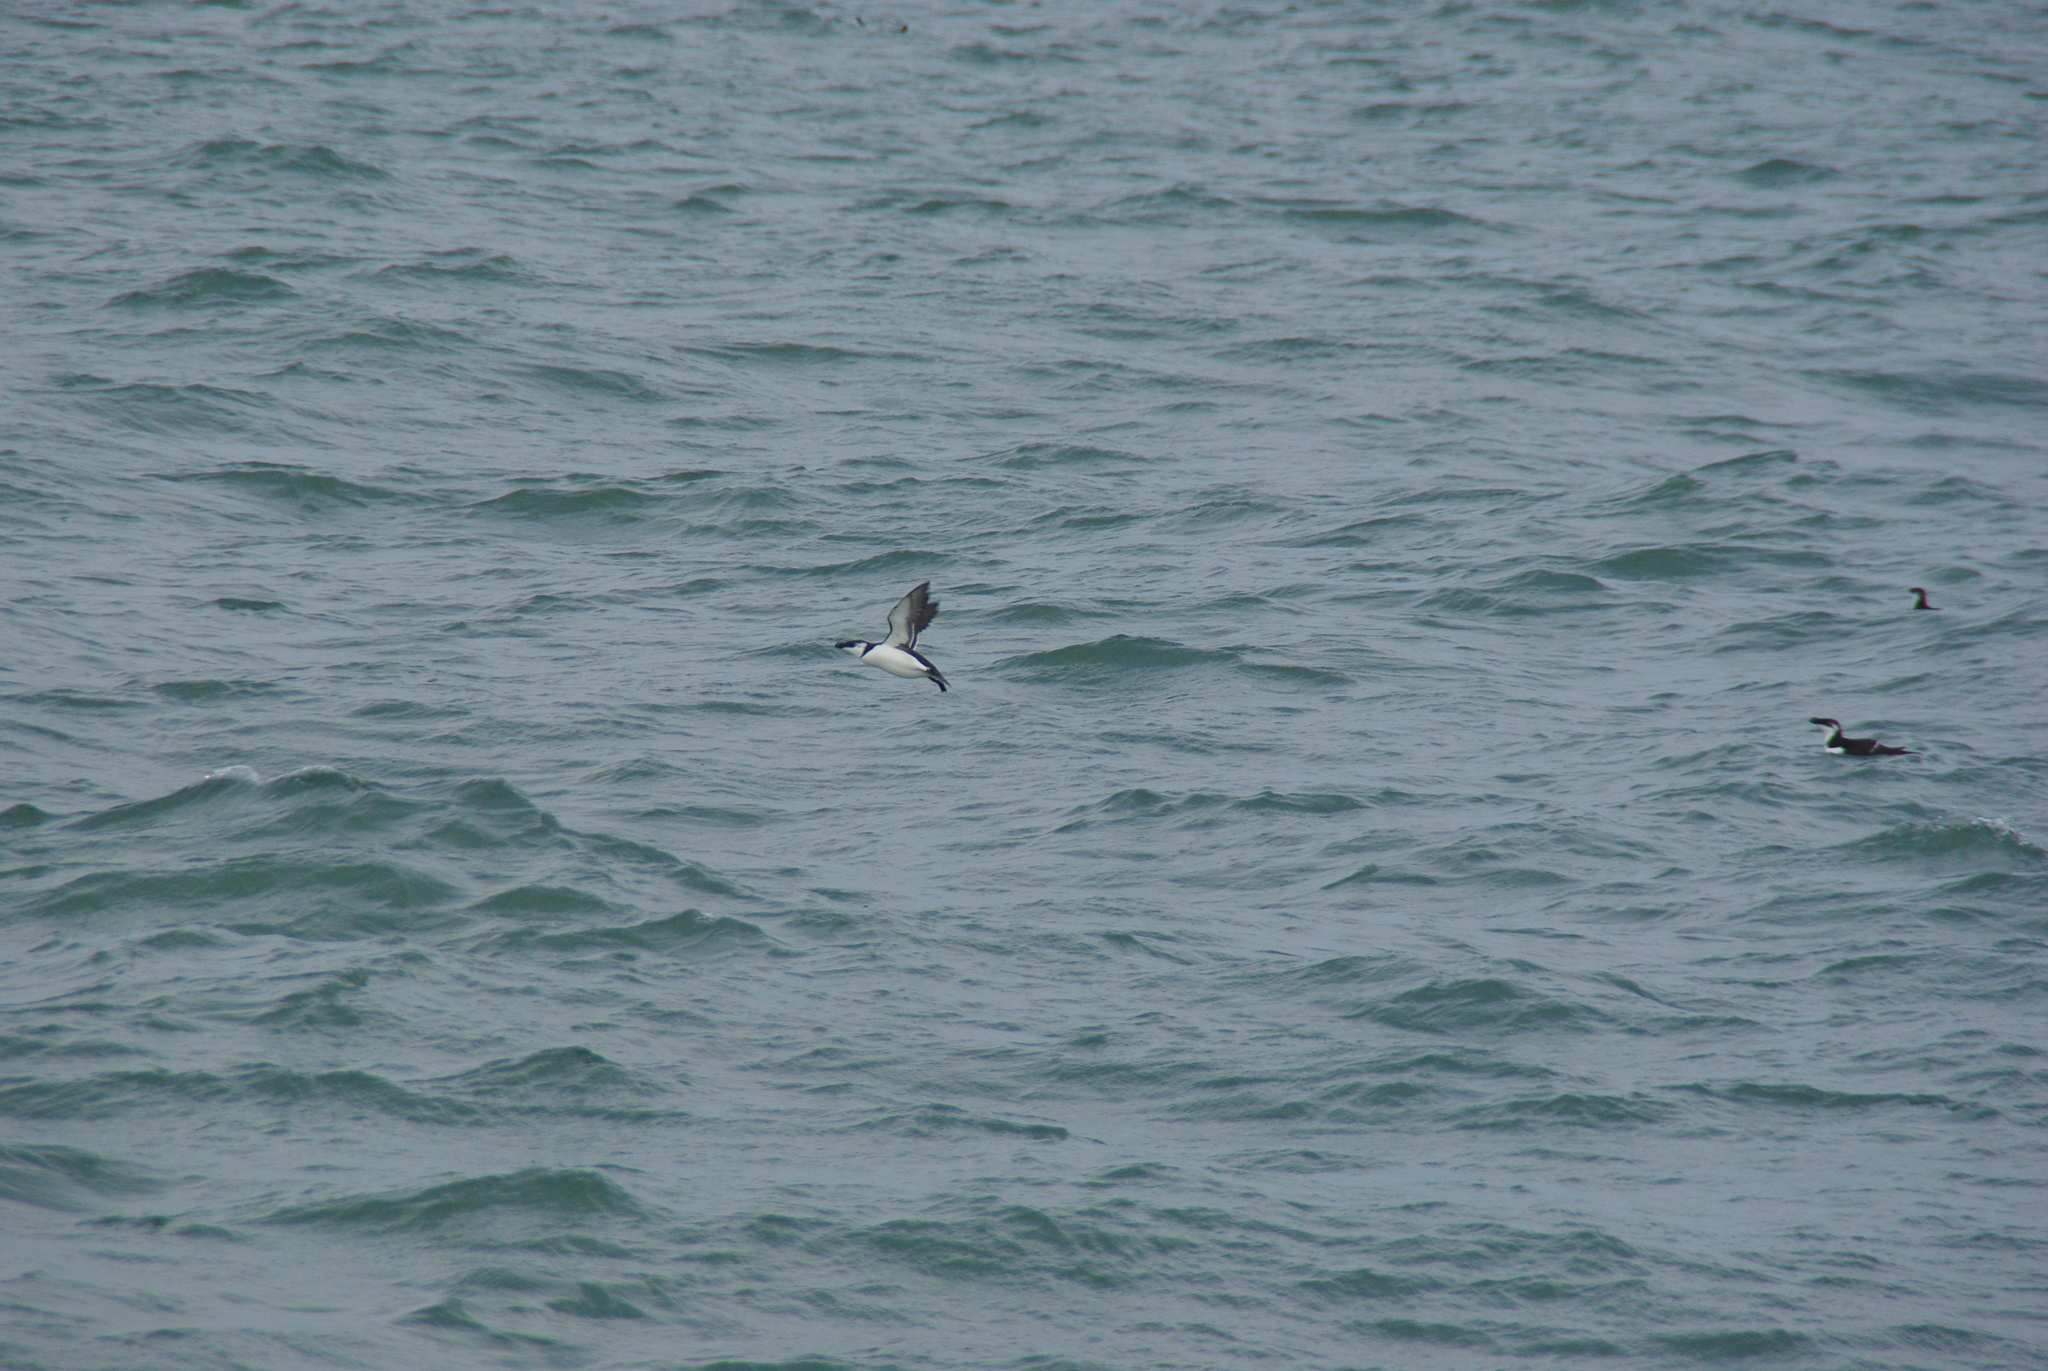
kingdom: Animalia
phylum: Chordata
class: Aves
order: Charadriiformes
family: Alcidae
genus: Alca
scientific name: Alca torda
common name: Razorbill
